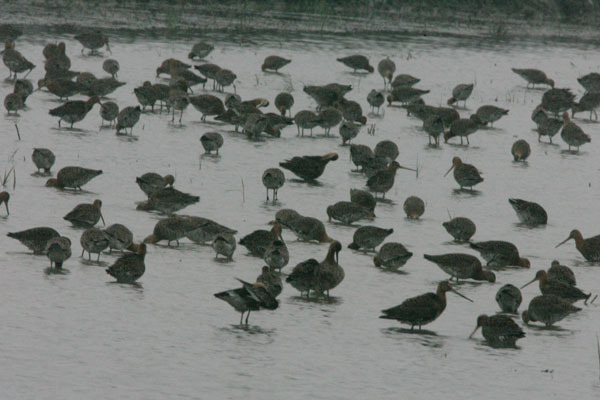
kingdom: Animalia
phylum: Chordata
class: Aves
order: Charadriiformes
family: Scolopacidae
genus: Limosa
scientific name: Limosa limosa
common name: Black-tailed godwit
